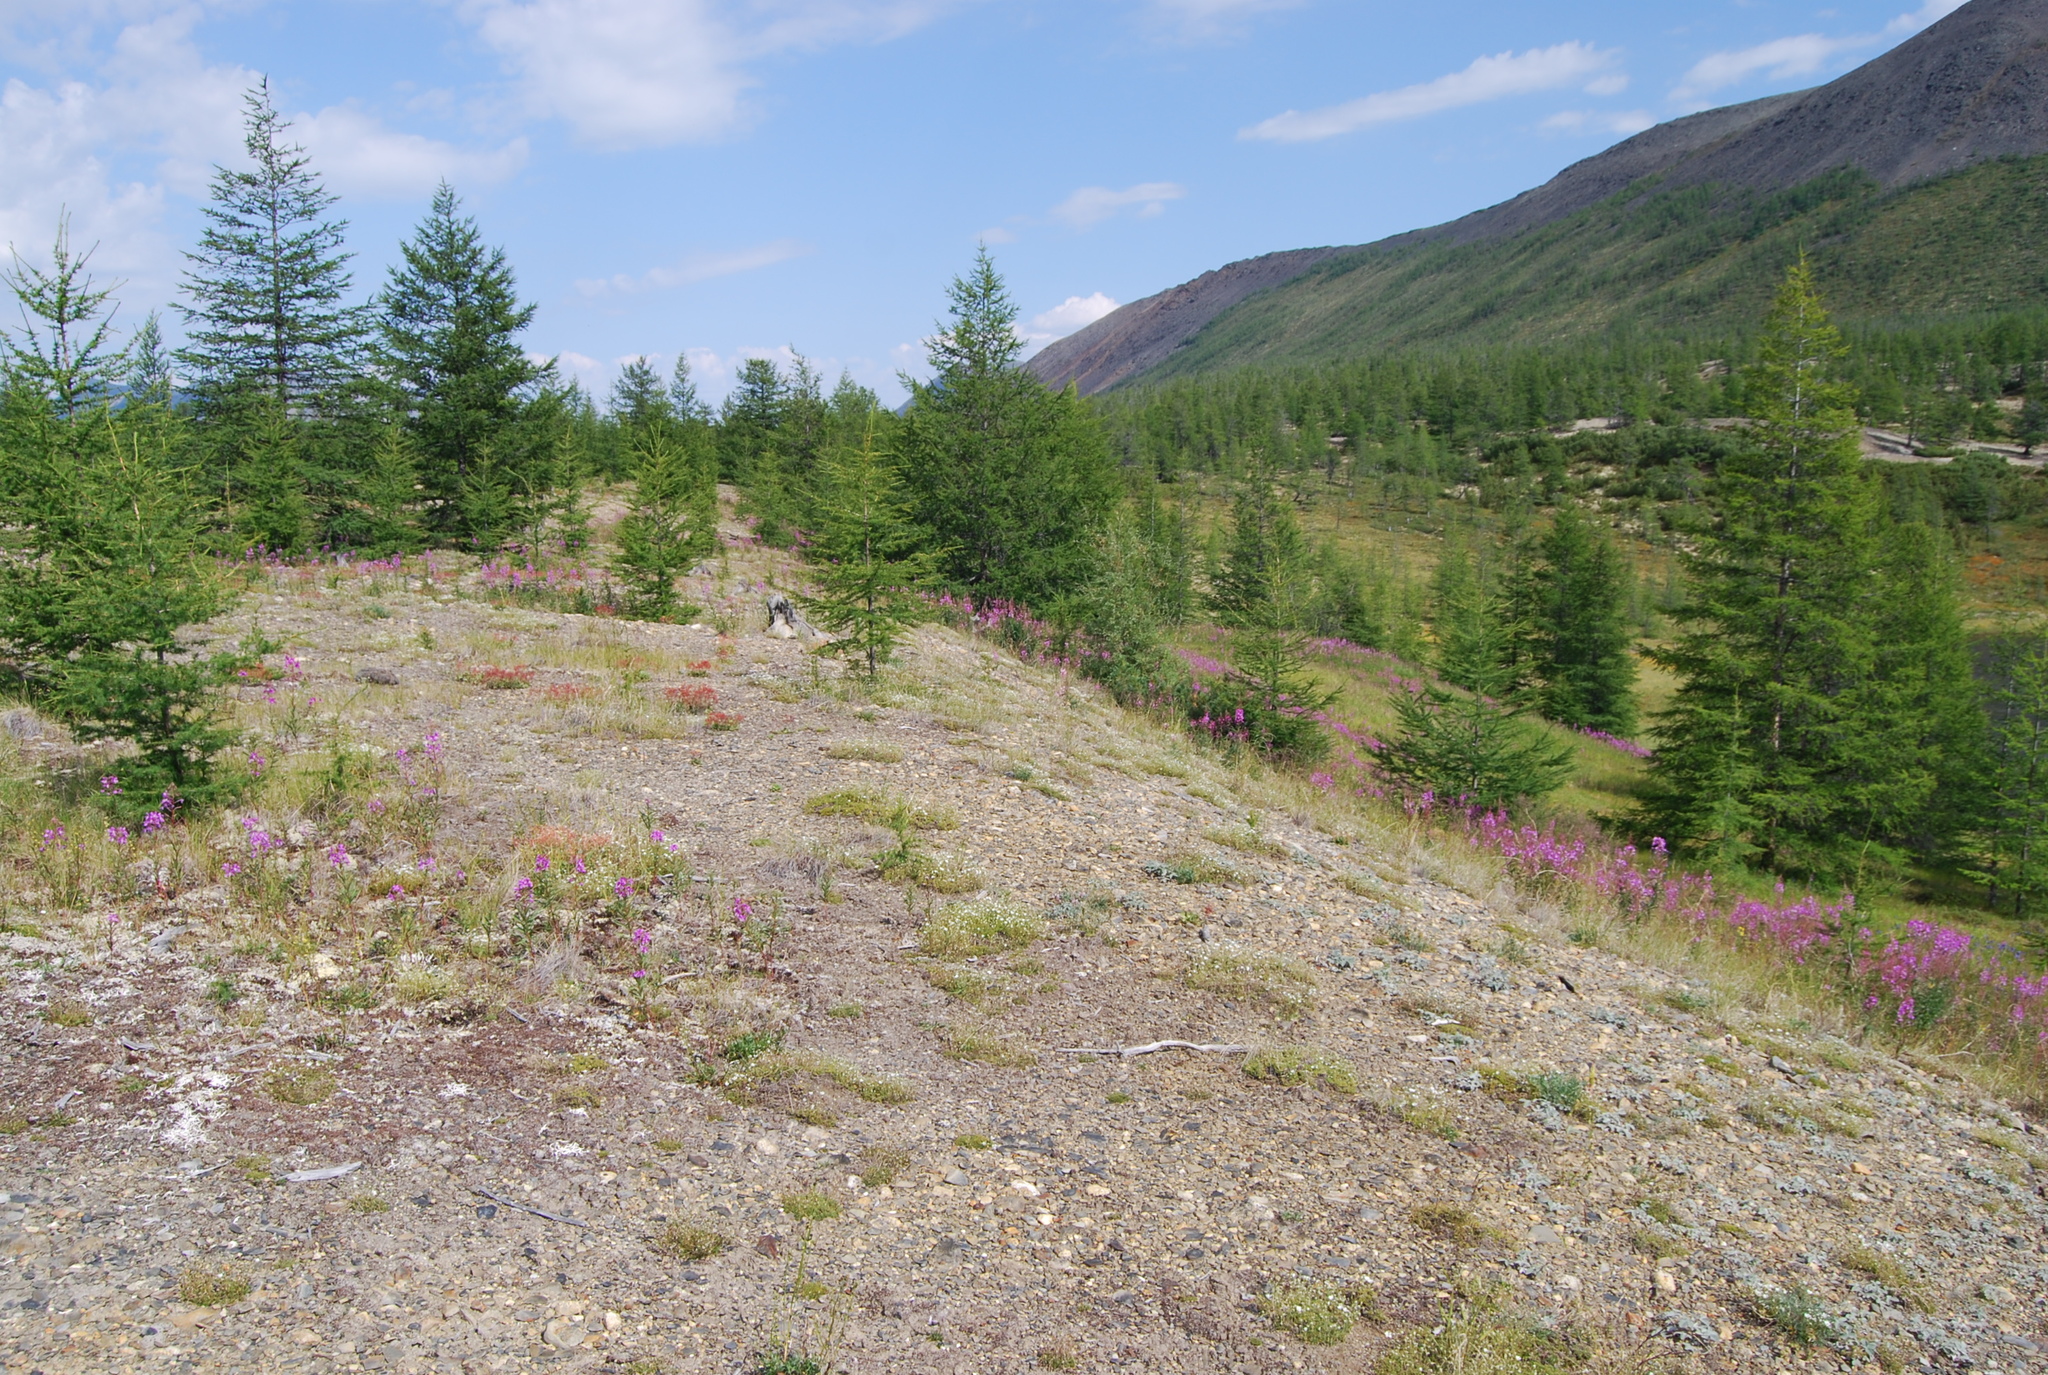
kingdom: Plantae
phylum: Tracheophyta
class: Magnoliopsida
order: Fabales
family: Fabaceae
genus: Oxytropis
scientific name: Oxytropis susumanica
